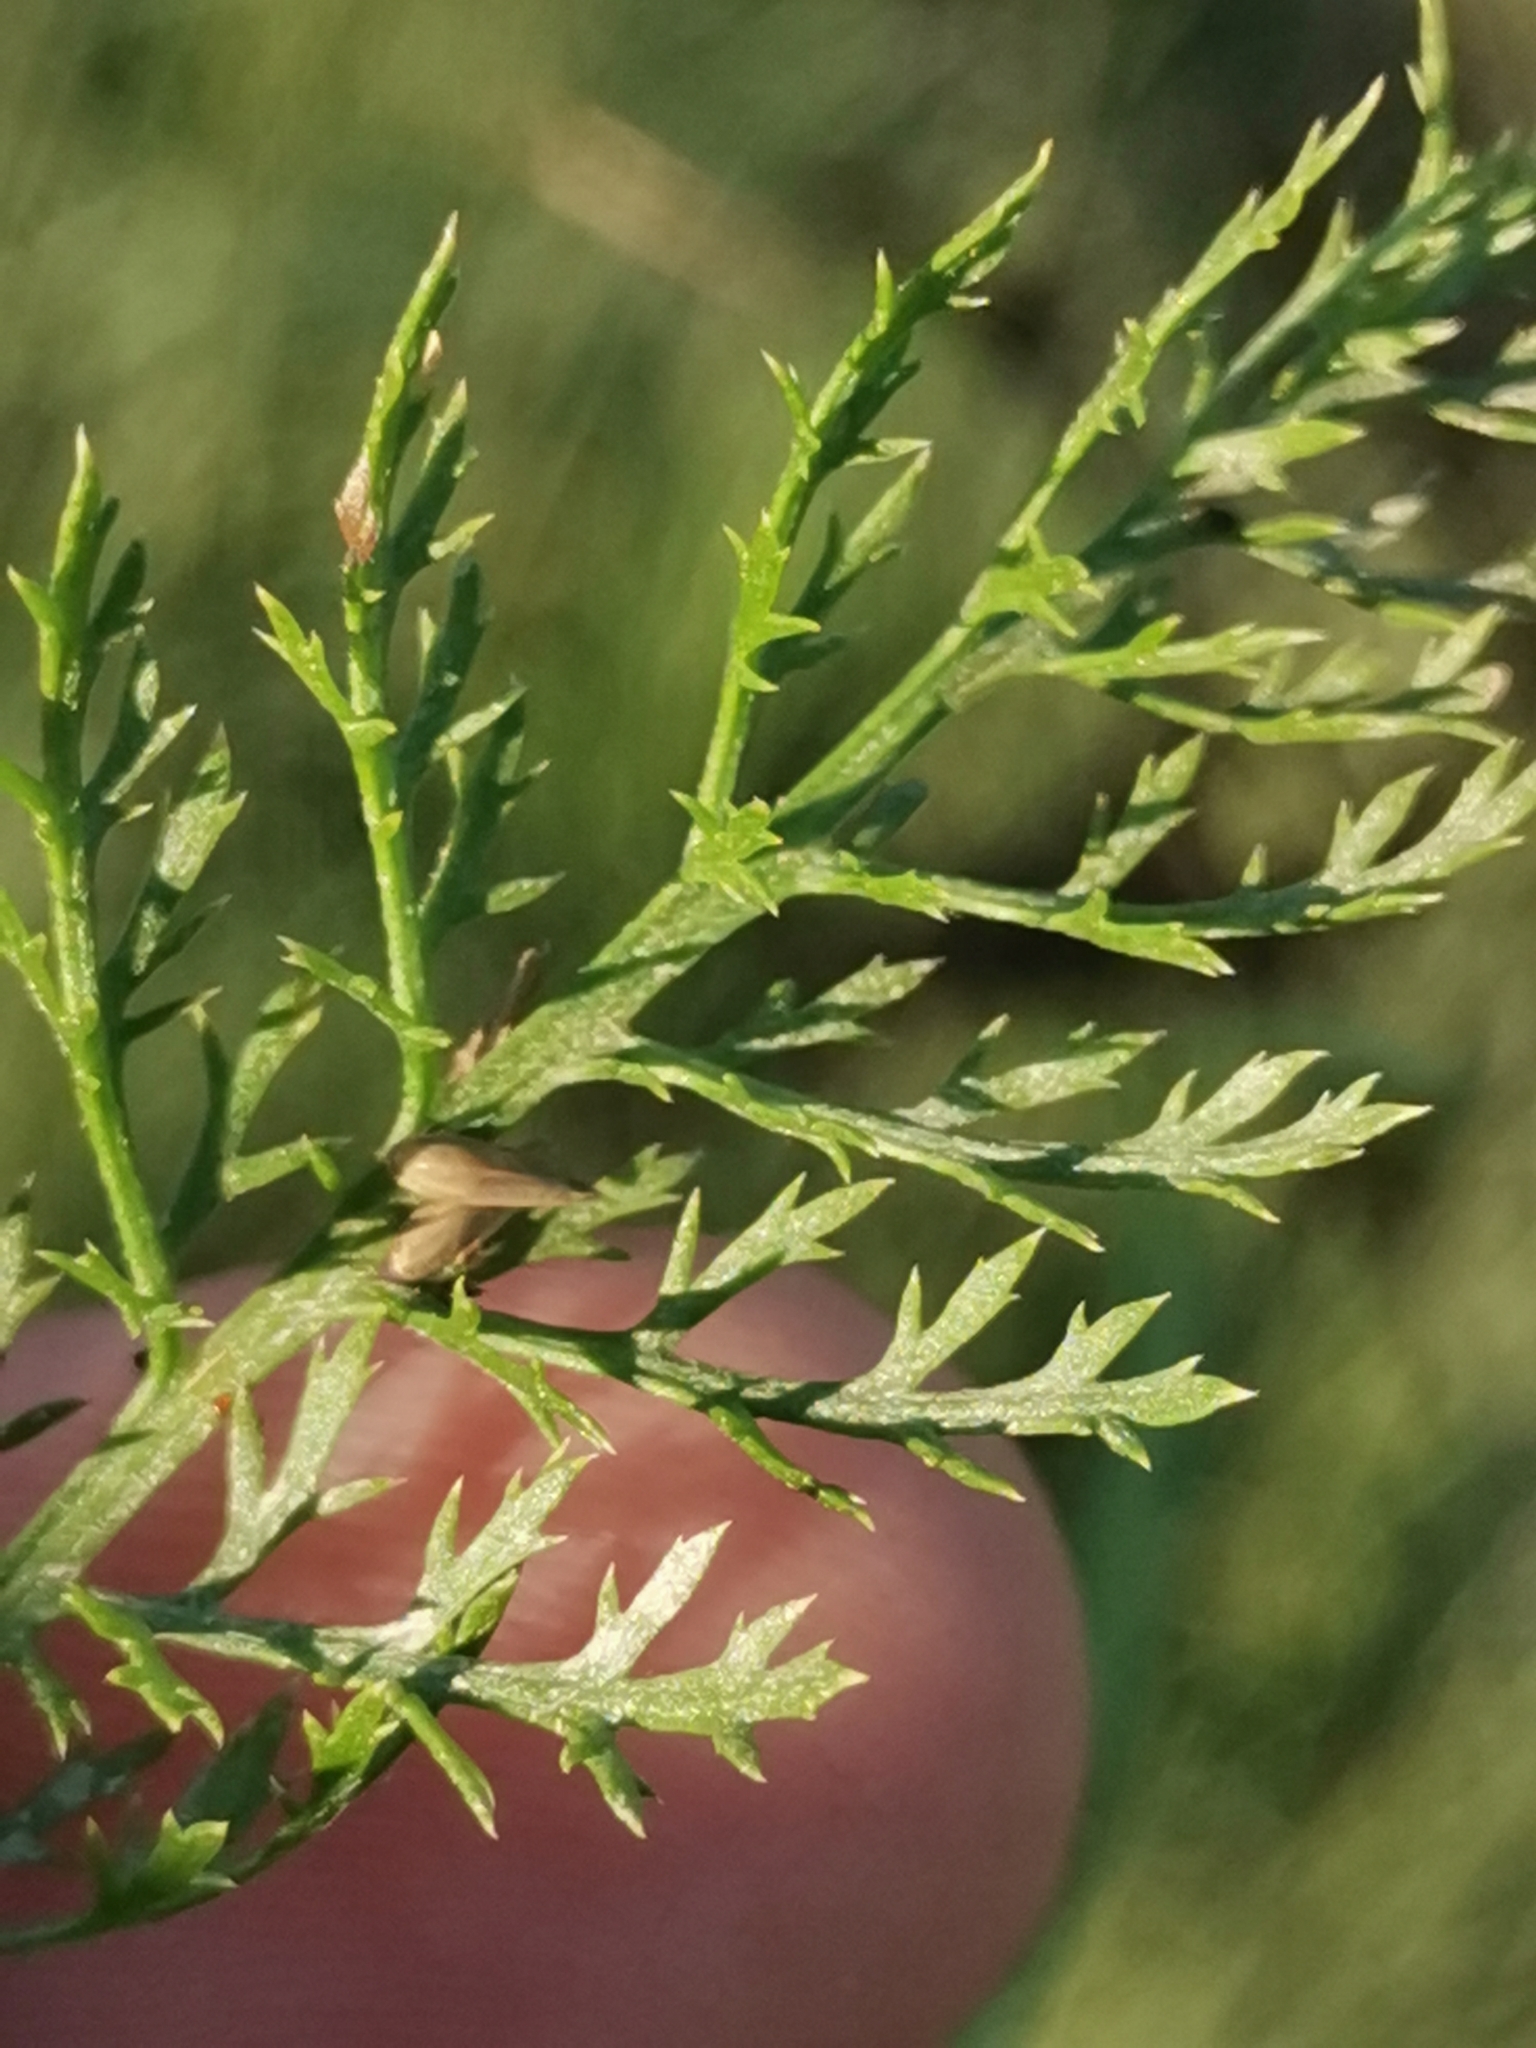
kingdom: Plantae
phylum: Tracheophyta
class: Magnoliopsida
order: Asterales
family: Asteraceae
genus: Achillea
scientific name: Achillea roseoalba
